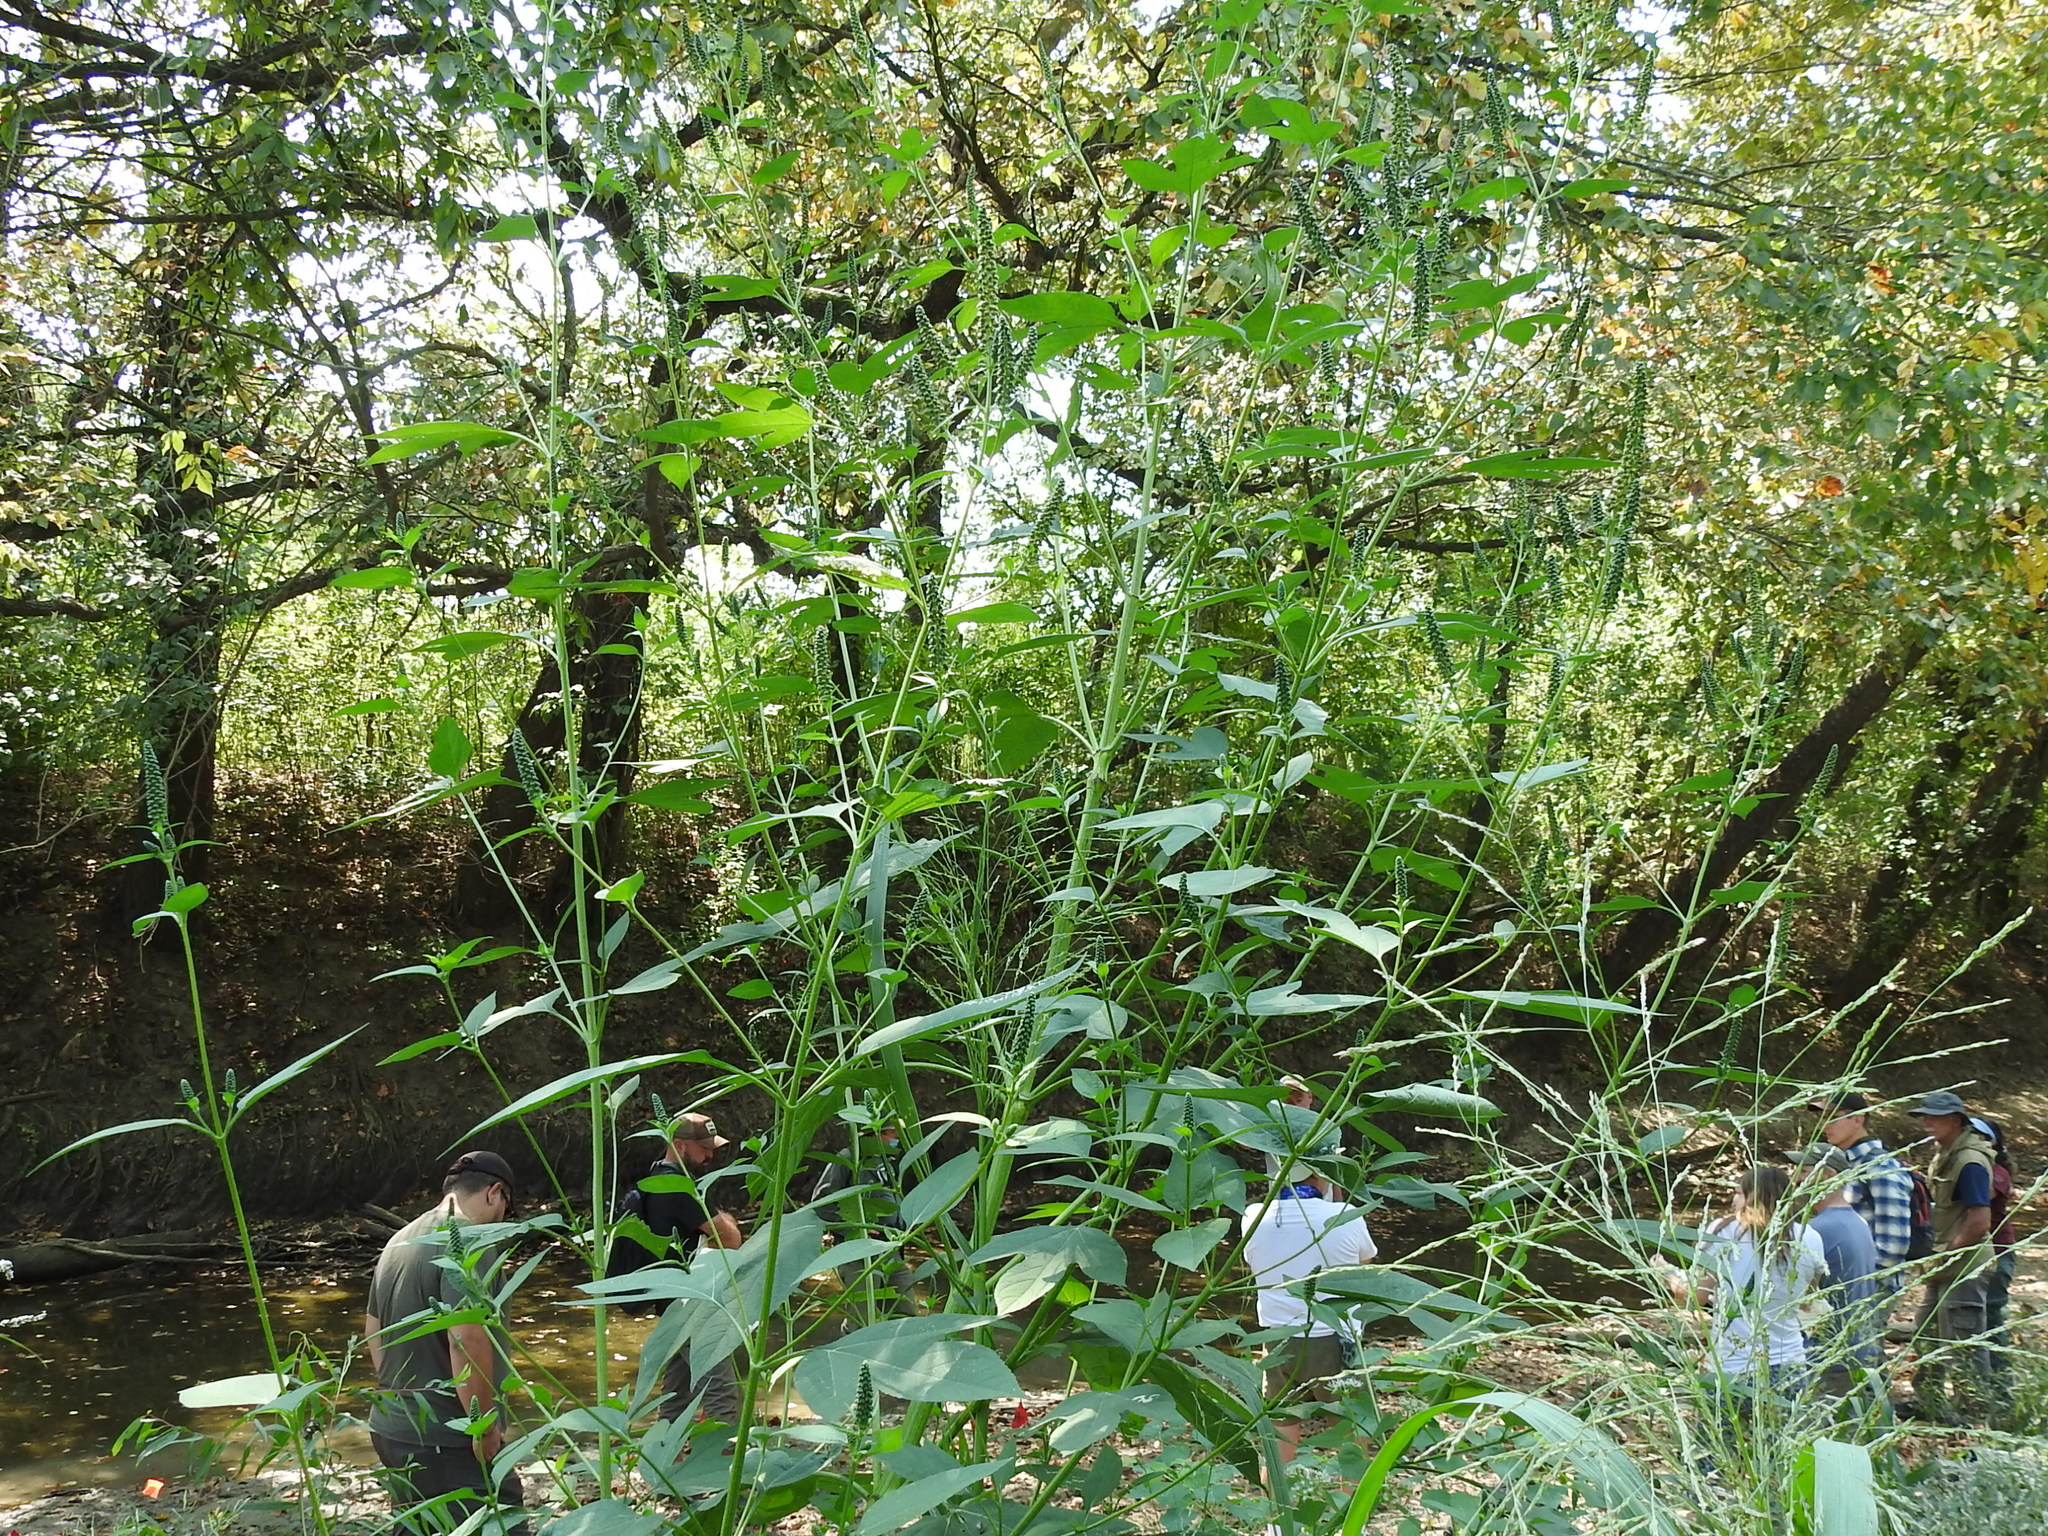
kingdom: Plantae
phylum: Tracheophyta
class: Magnoliopsida
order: Asterales
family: Asteraceae
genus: Ambrosia
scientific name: Ambrosia trifida
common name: Giant ragweed
